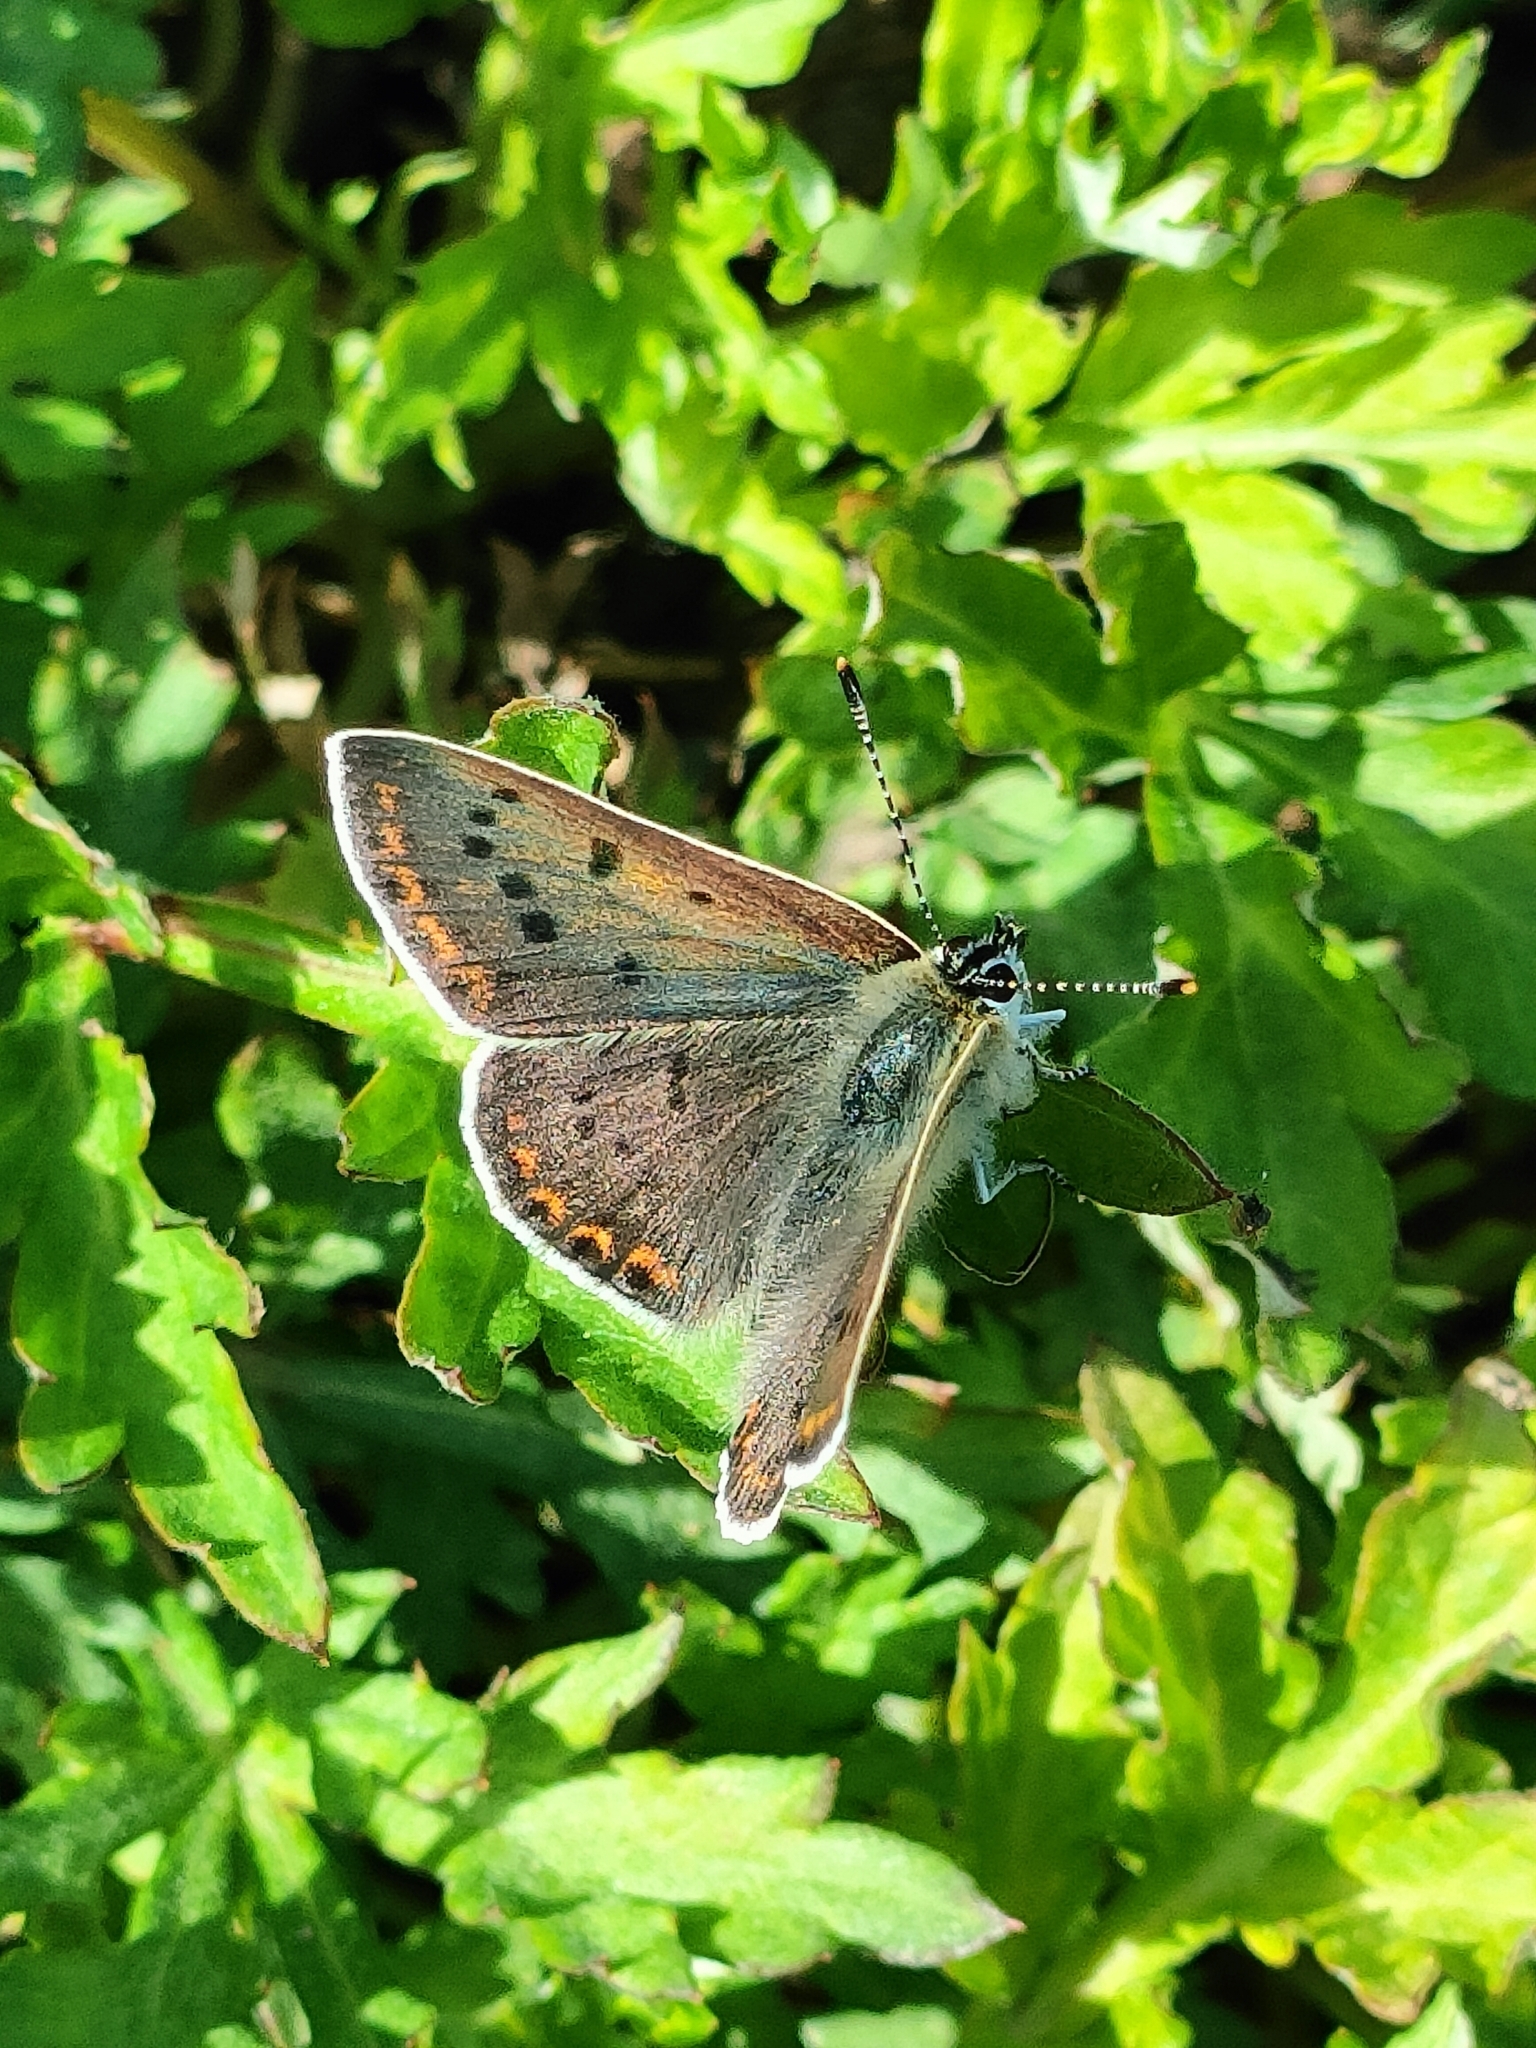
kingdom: Animalia
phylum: Arthropoda
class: Insecta
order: Lepidoptera
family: Lycaenidae
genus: Loweia
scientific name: Loweia tityrus
